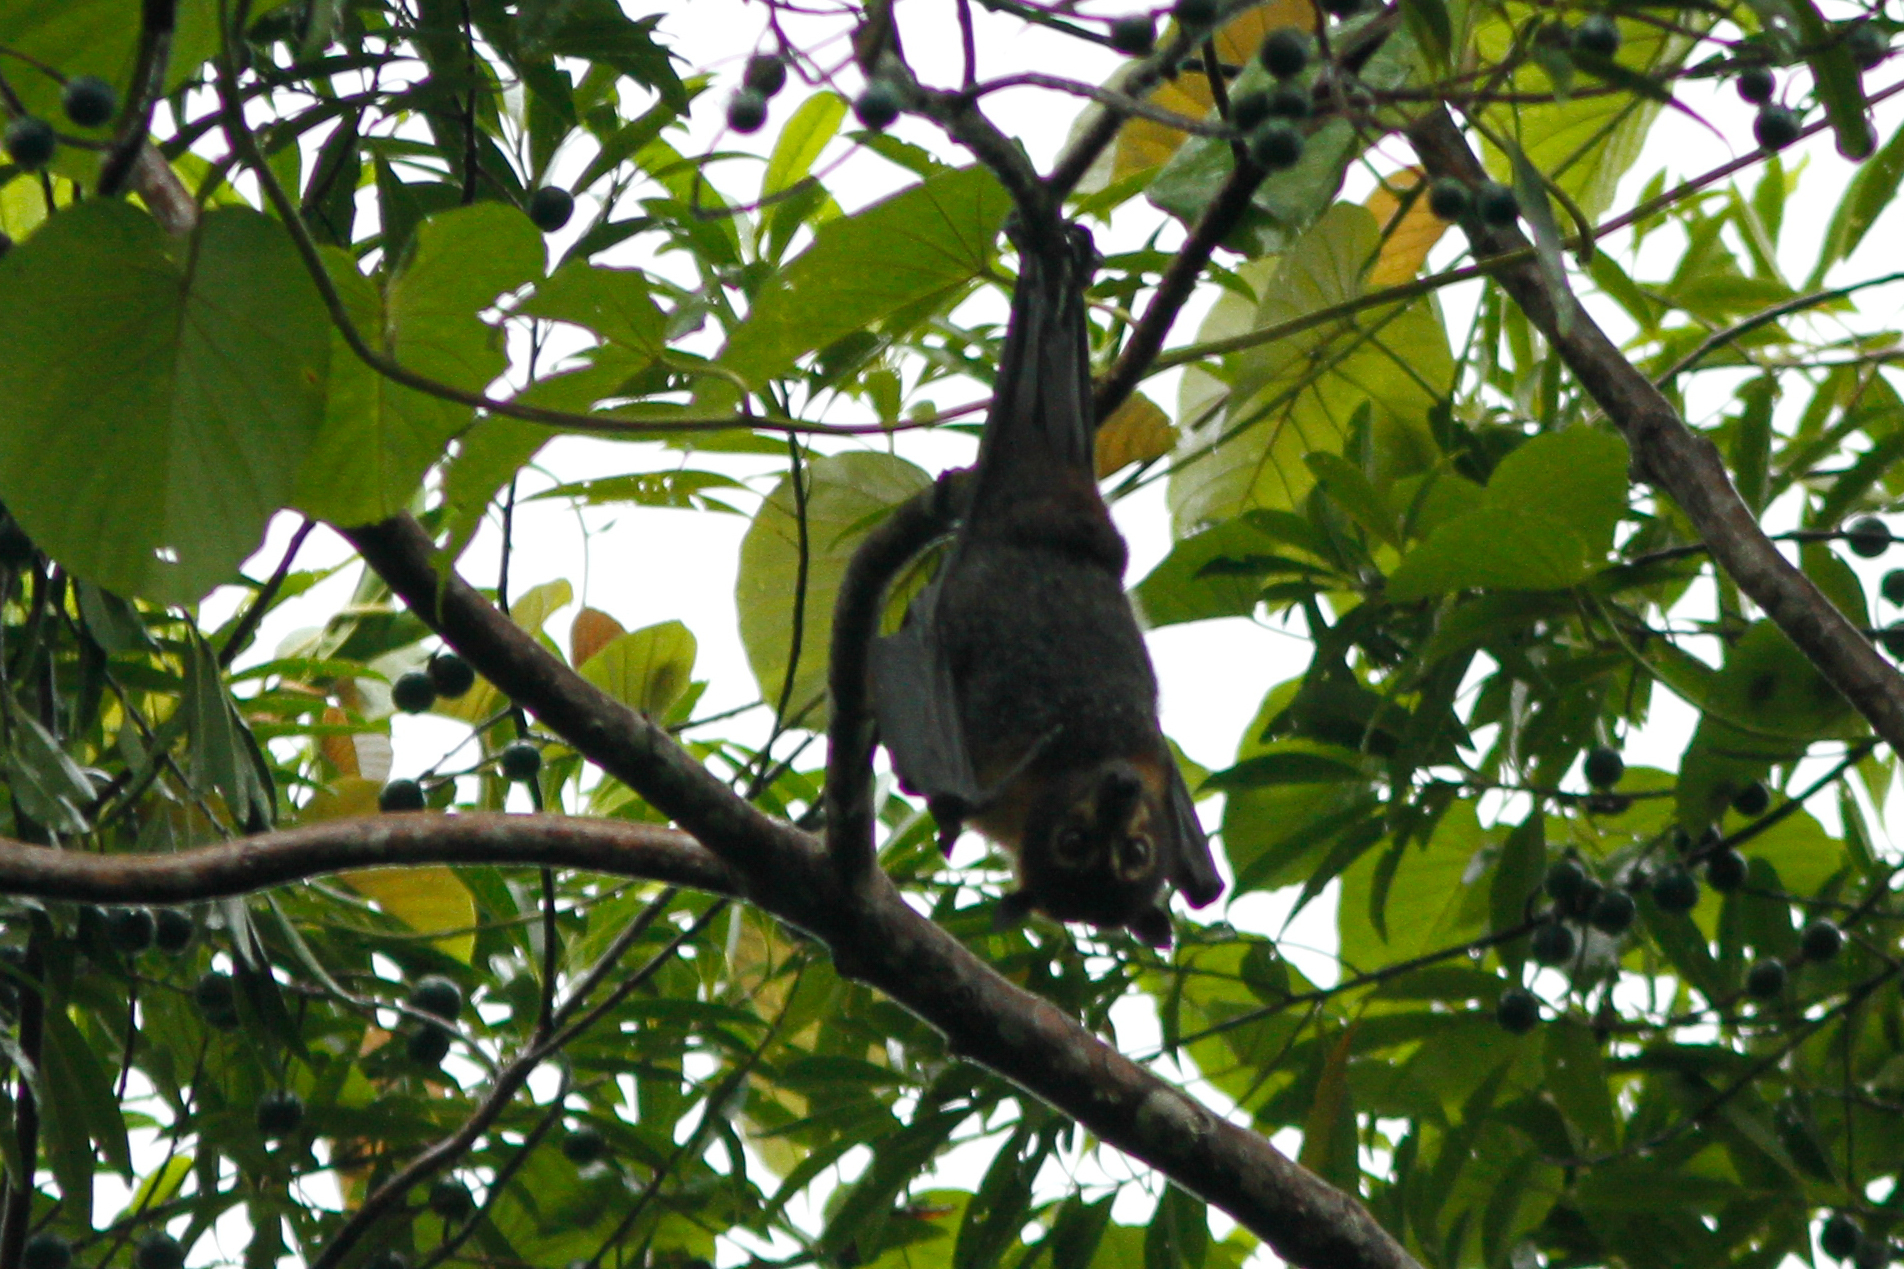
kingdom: Animalia
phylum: Chordata
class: Mammalia
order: Chiroptera
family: Pteropodidae
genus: Pteropus
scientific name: Pteropus conspicillatus
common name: Spectacled flying fox
